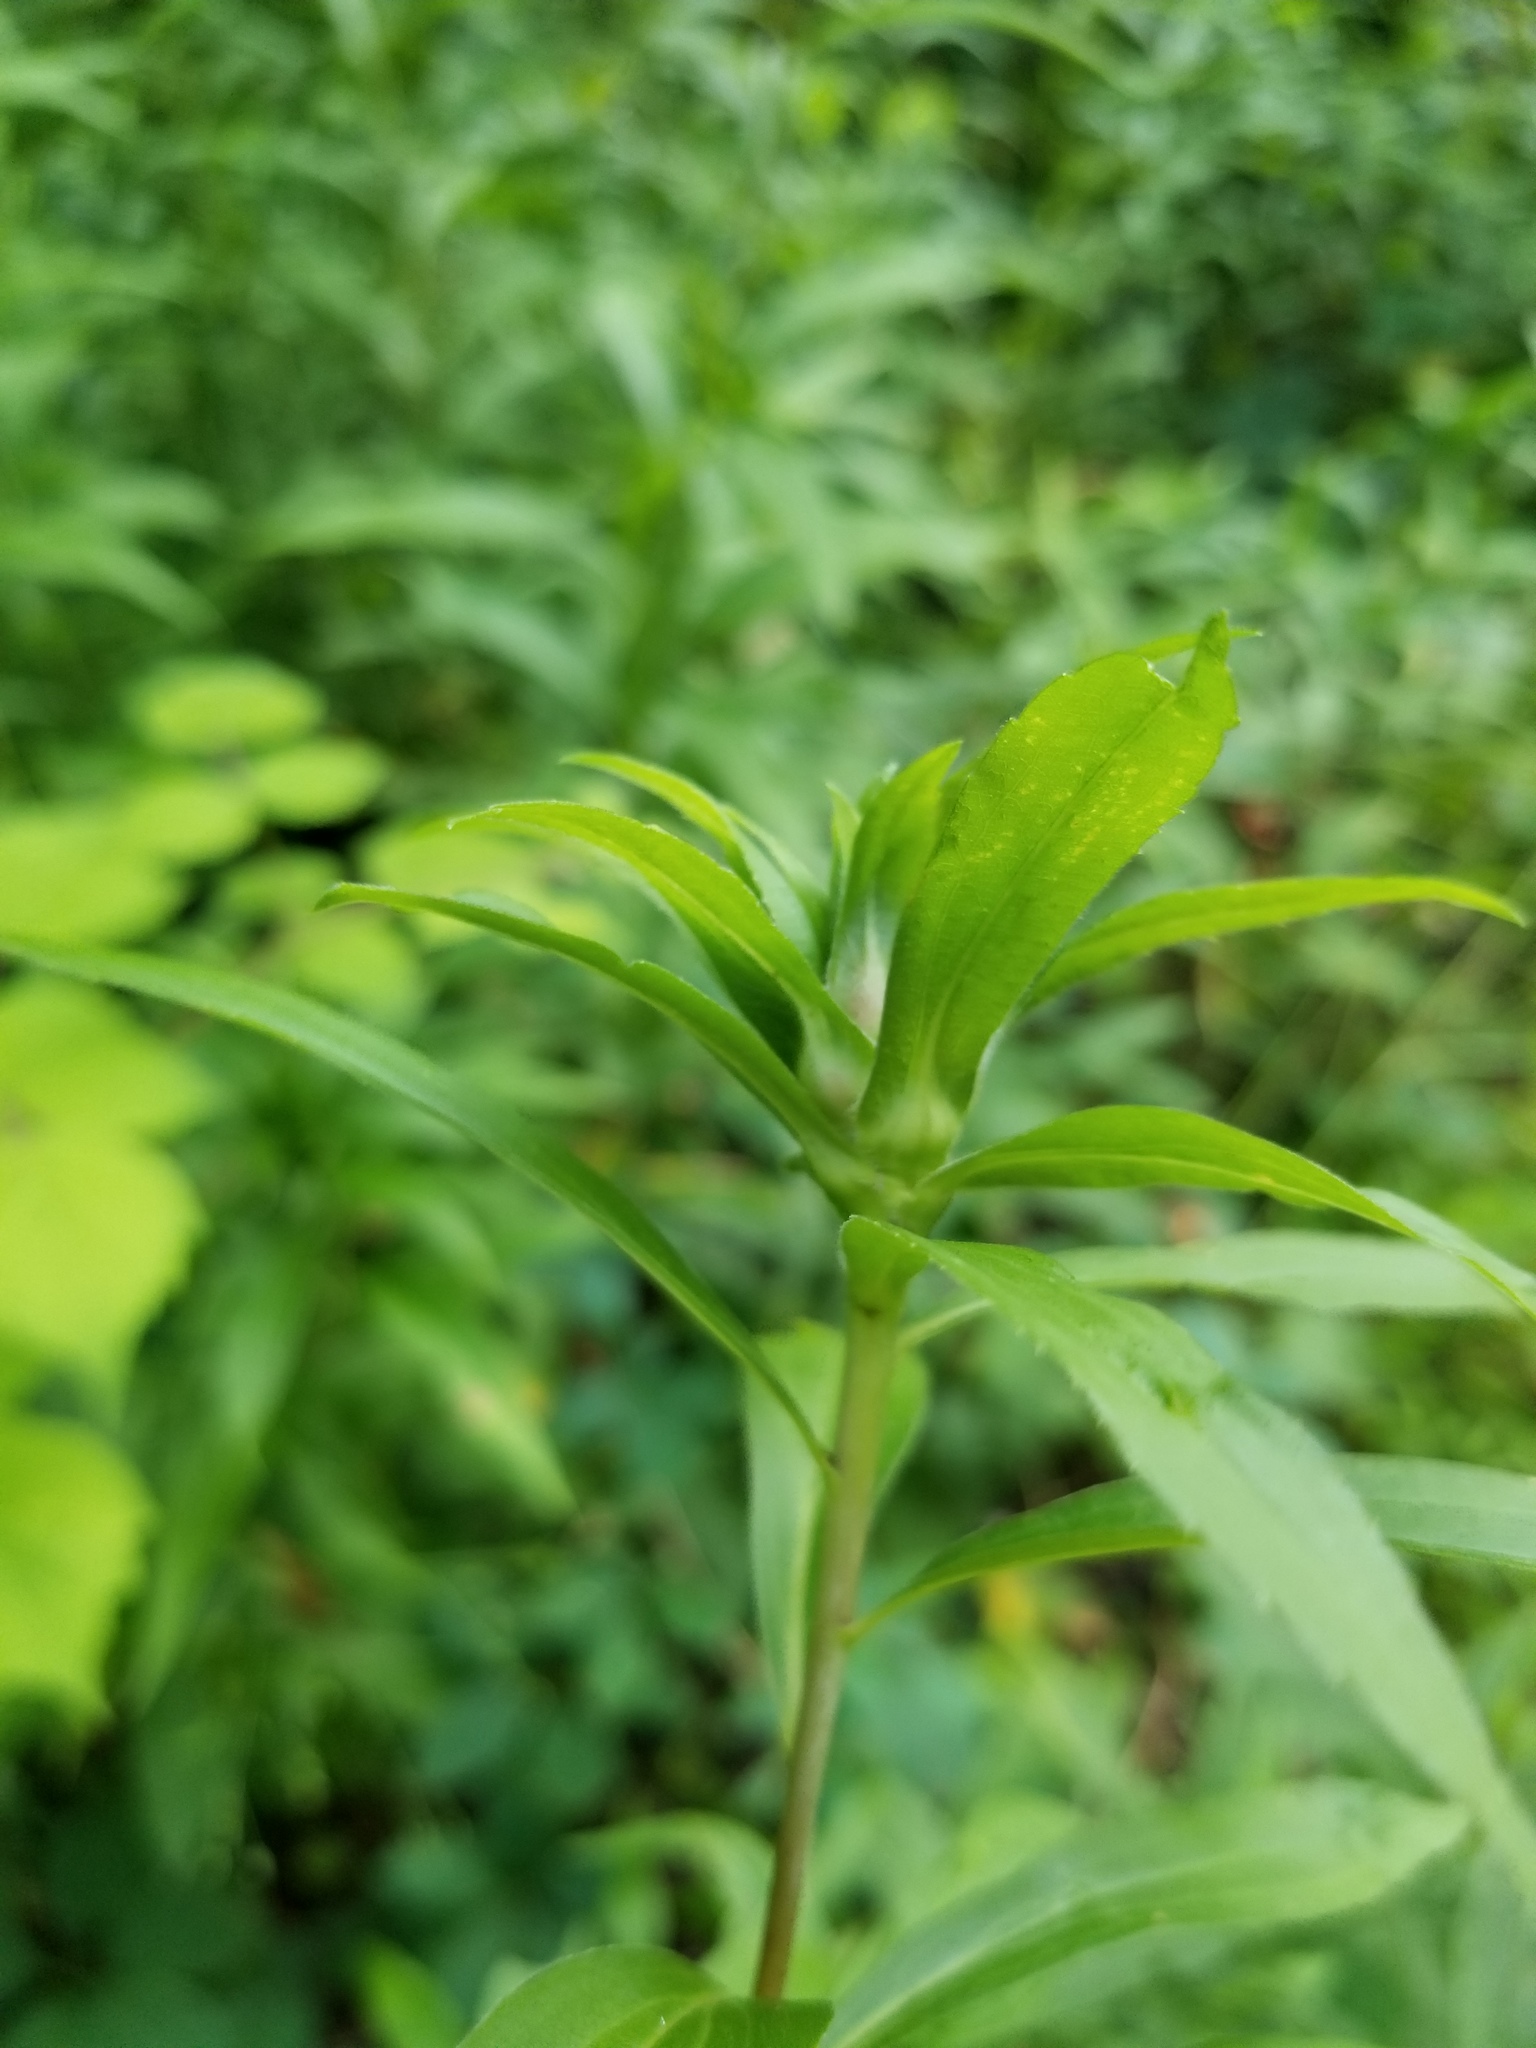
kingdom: Animalia
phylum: Arthropoda
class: Insecta
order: Diptera
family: Cecidomyiidae
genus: Dasineura
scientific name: Dasineura folliculi
